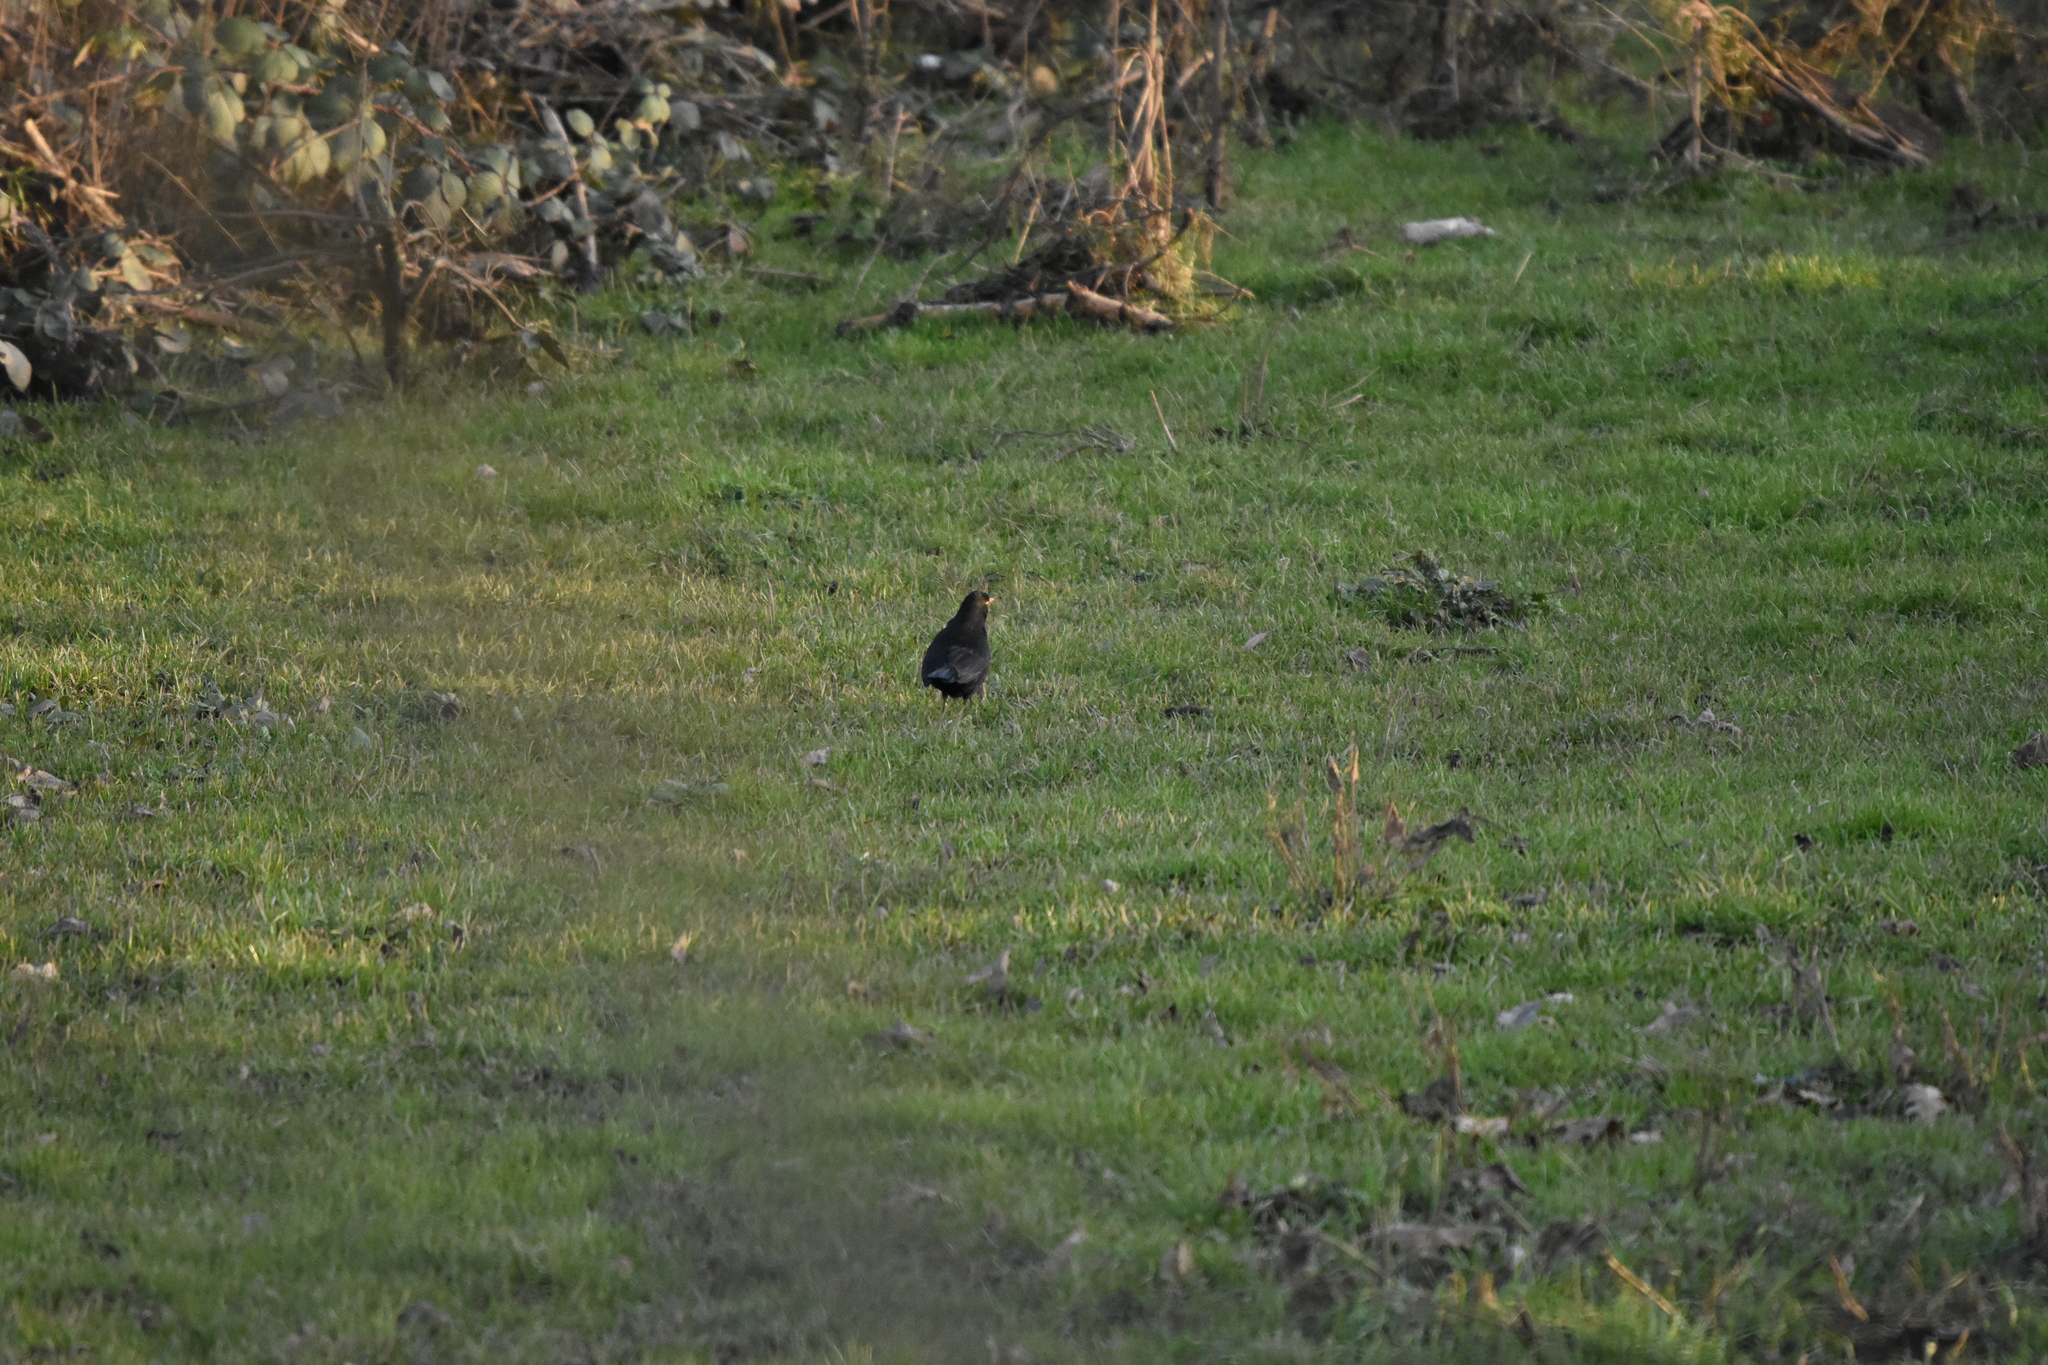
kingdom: Animalia
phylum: Chordata
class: Aves
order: Passeriformes
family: Turdidae
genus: Turdus
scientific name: Turdus merula
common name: Common blackbird
